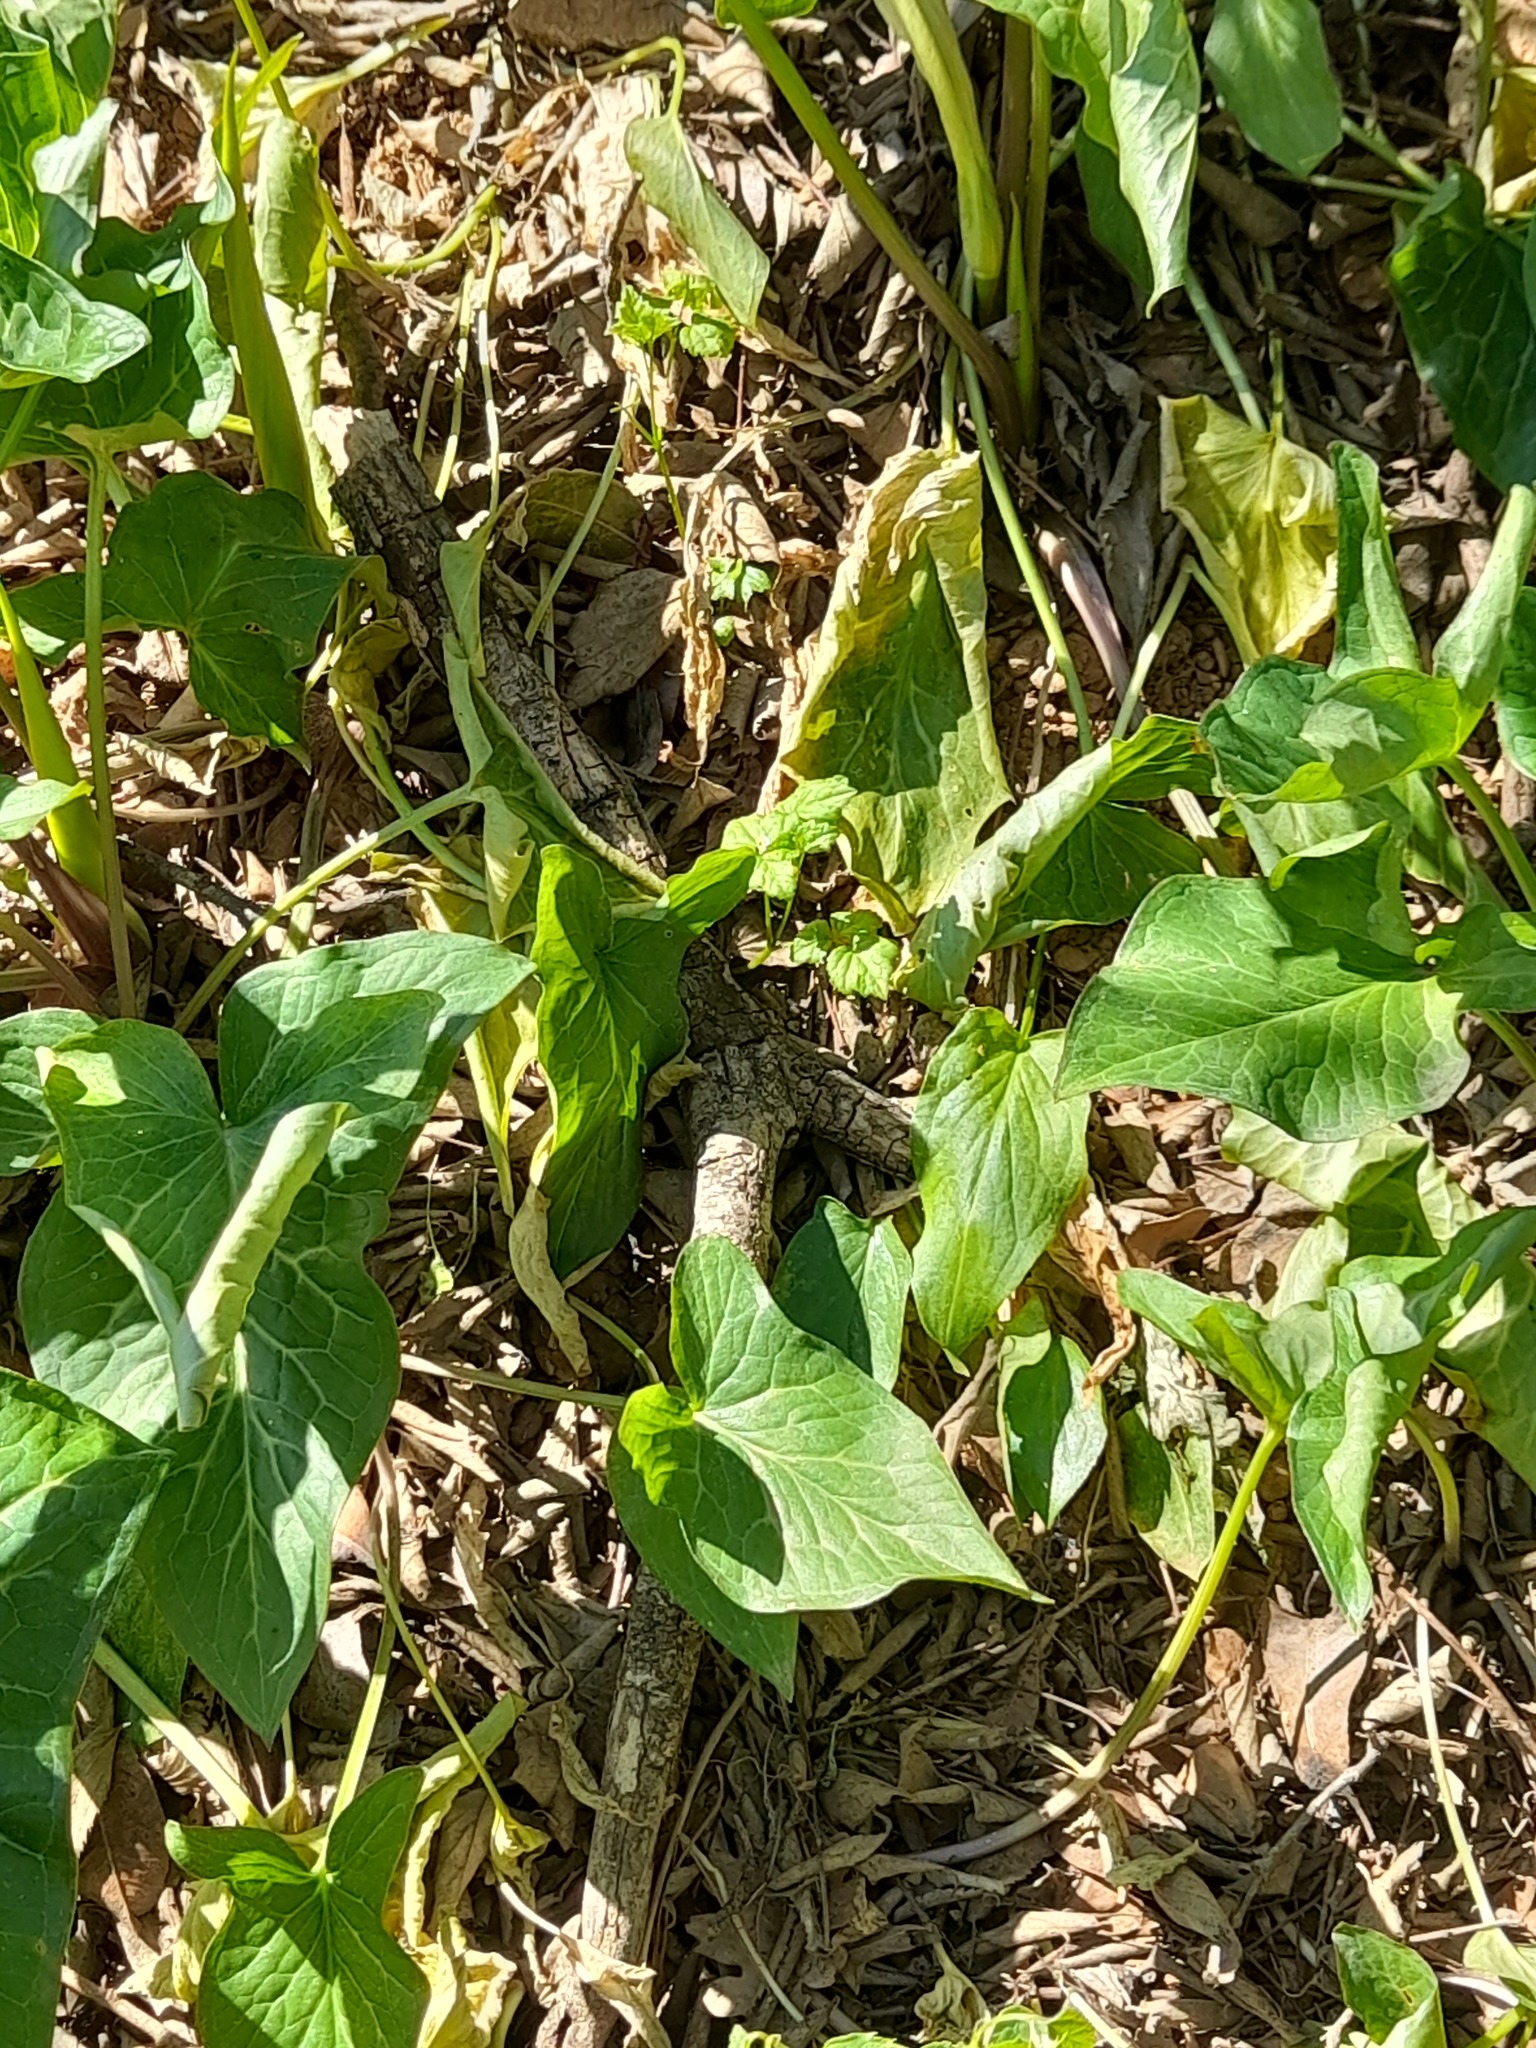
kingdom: Plantae
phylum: Tracheophyta
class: Liliopsida
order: Alismatales
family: Araceae
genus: Arum
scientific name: Arum italicum
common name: Italian lords-and-ladies
